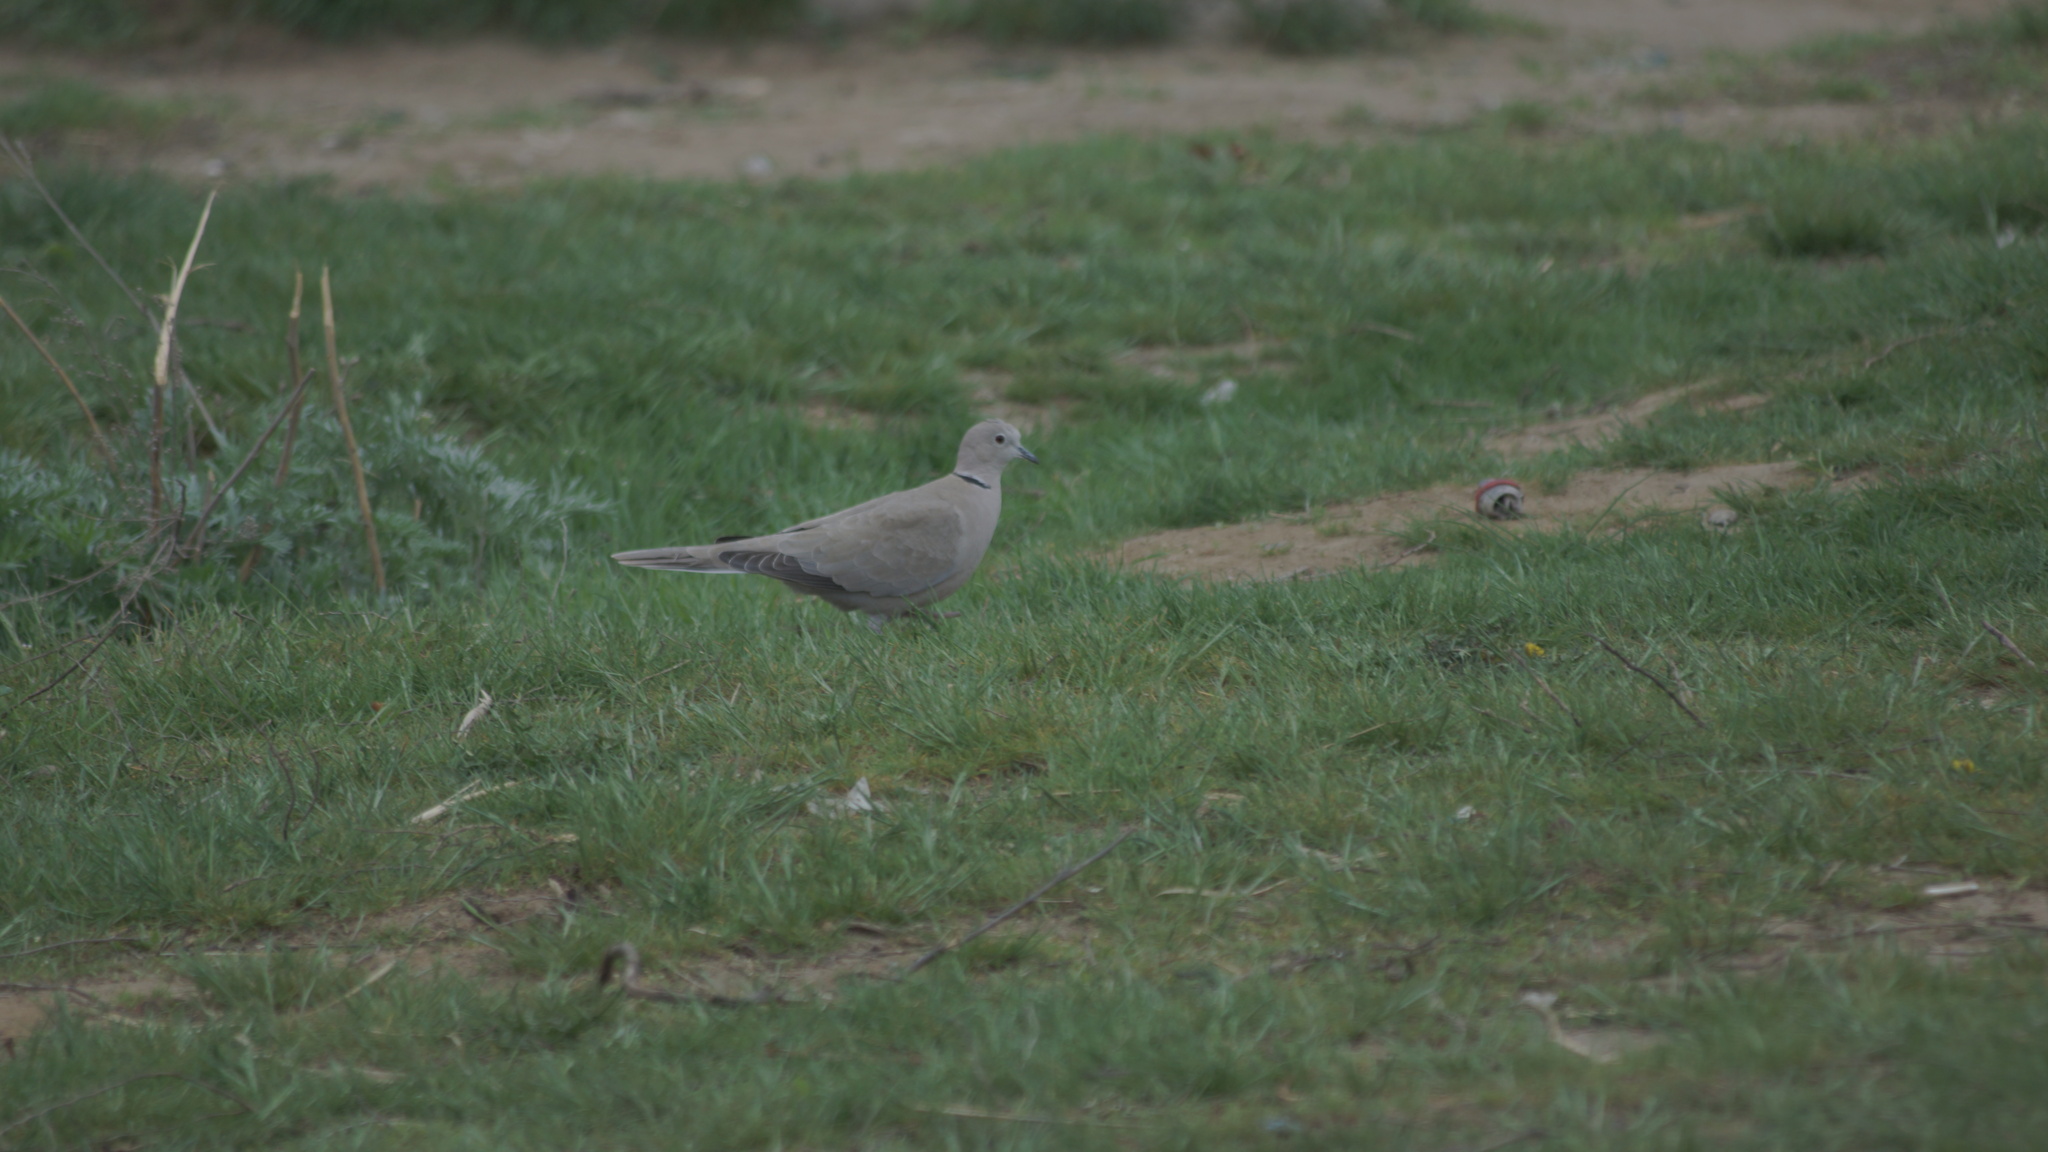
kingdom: Animalia
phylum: Chordata
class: Aves
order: Columbiformes
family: Columbidae
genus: Streptopelia
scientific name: Streptopelia decaocto
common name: Eurasian collared dove
